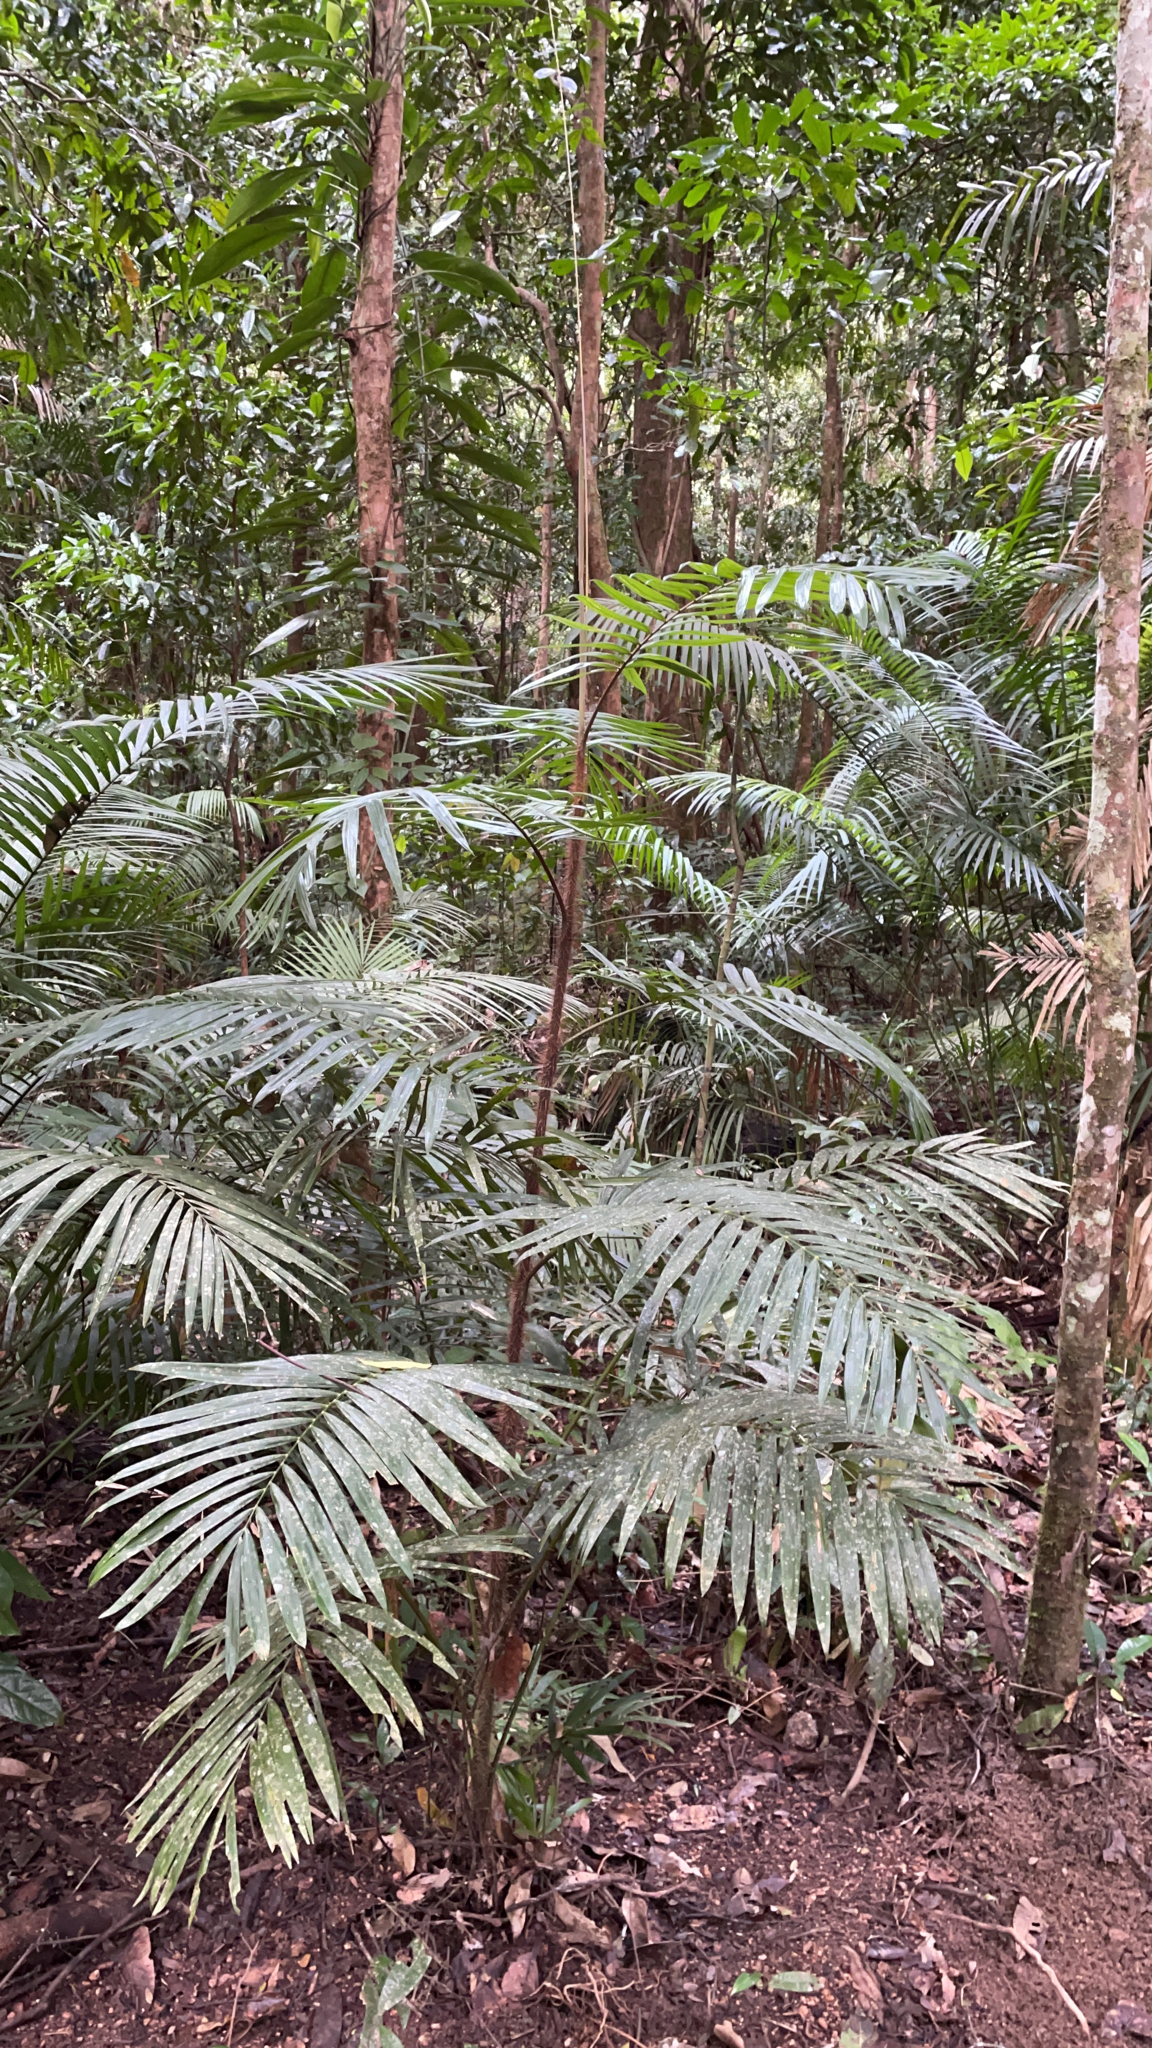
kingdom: Plantae
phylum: Tracheophyta
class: Liliopsida
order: Arecales
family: Arecaceae
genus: Calamus
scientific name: Calamus australis
